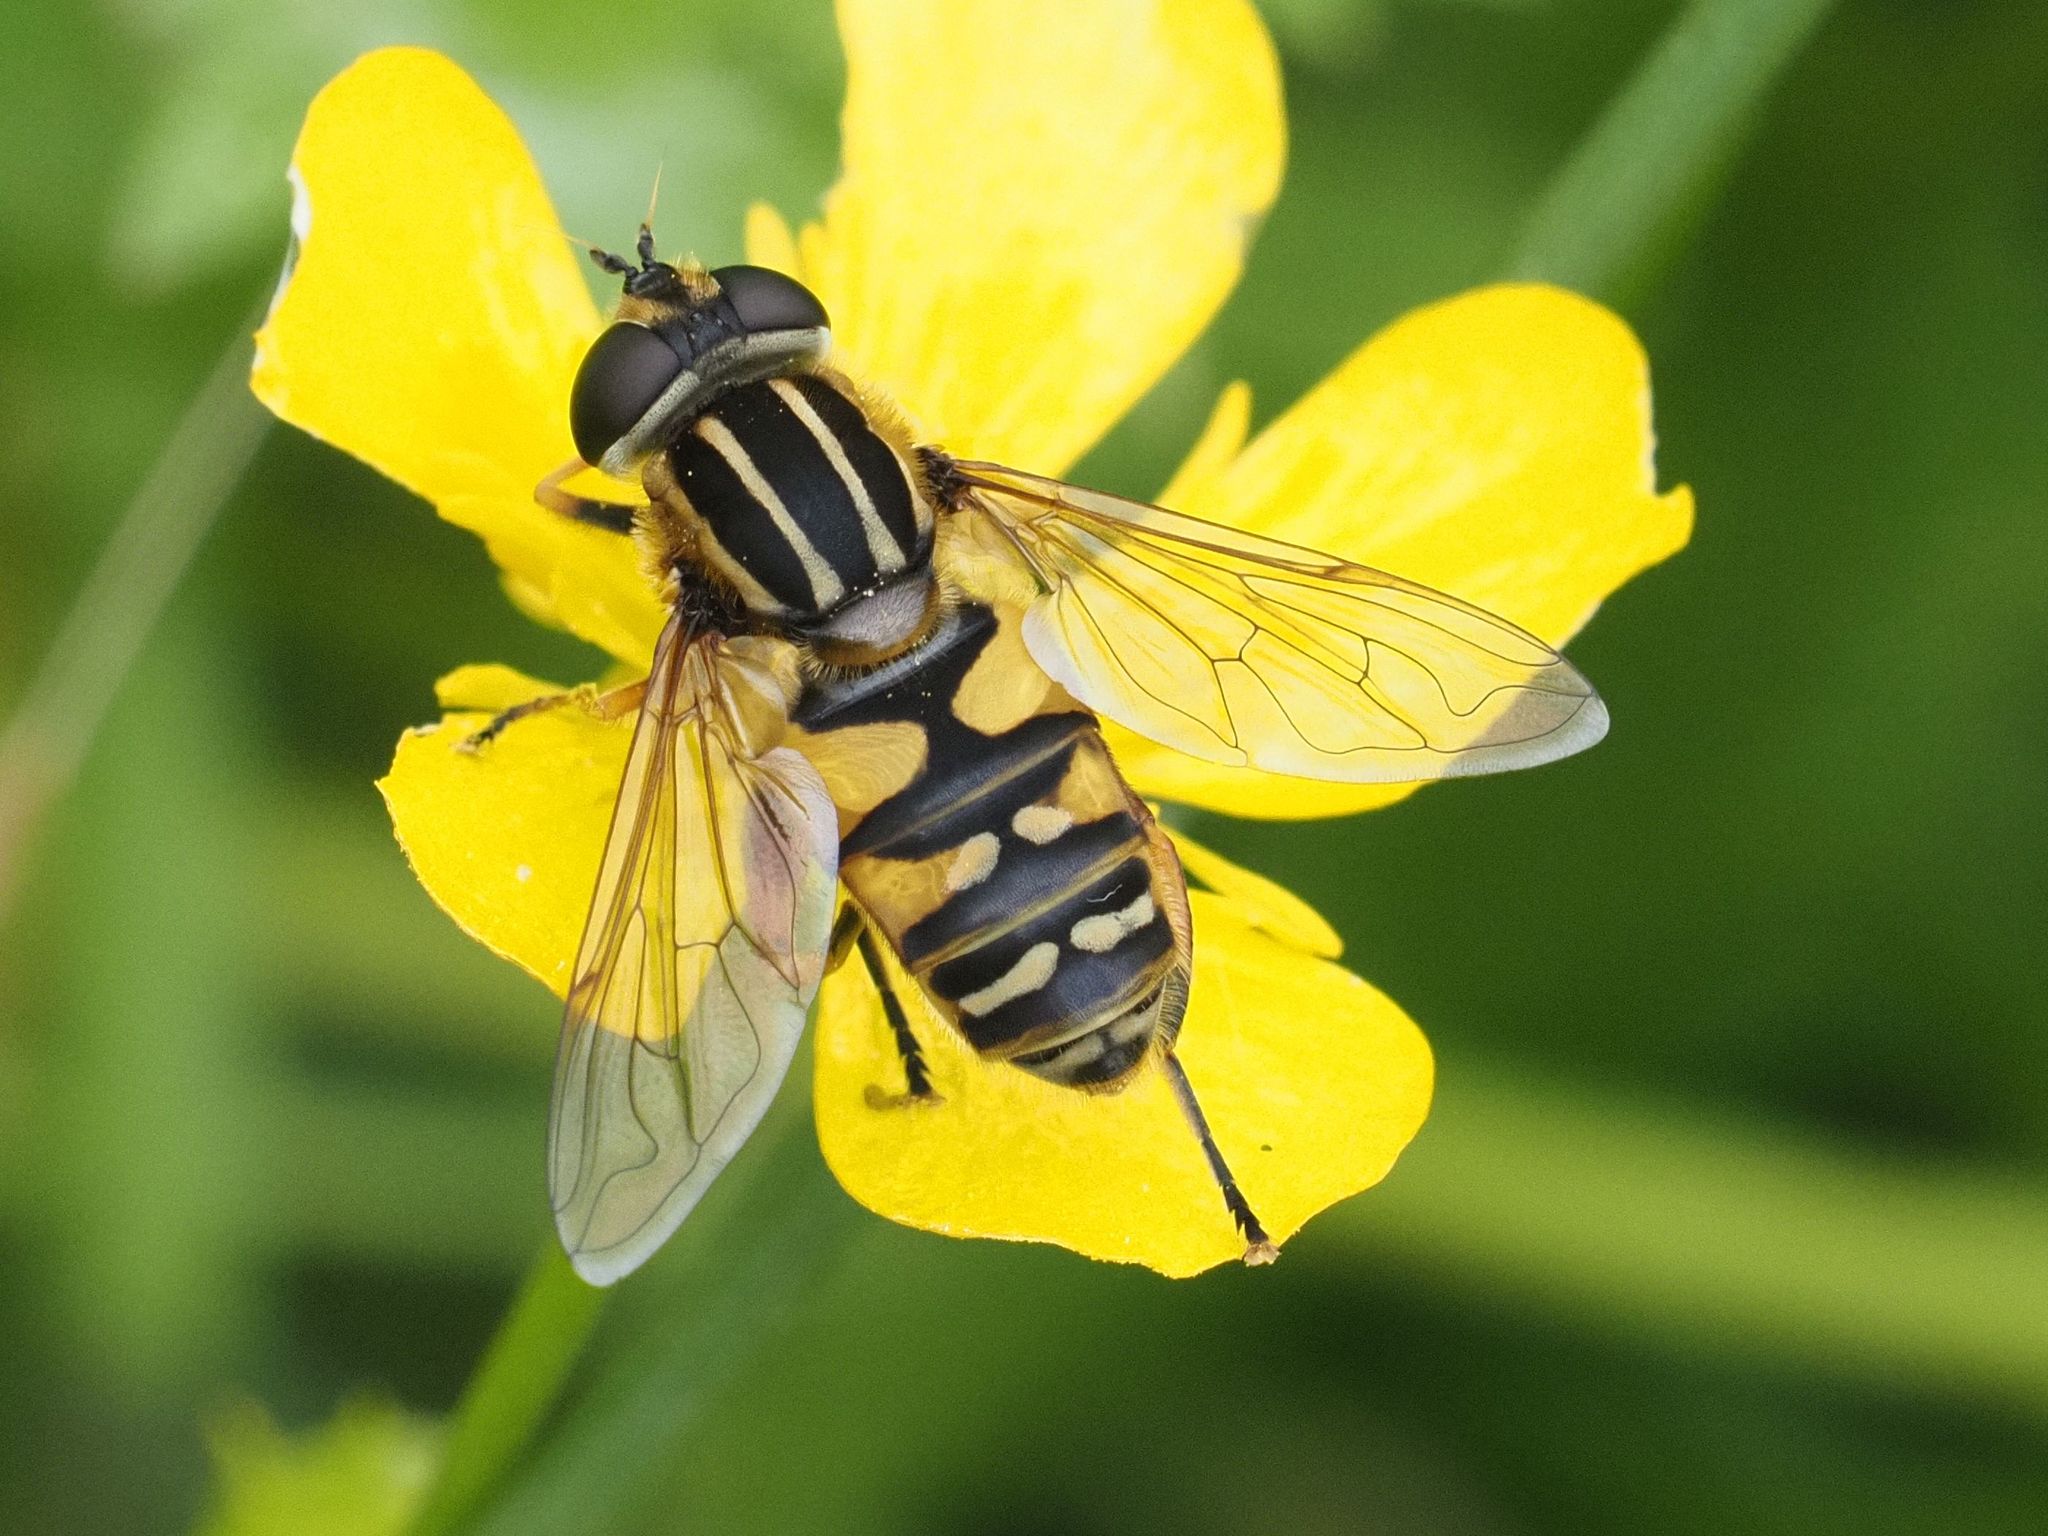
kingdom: Animalia
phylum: Arthropoda
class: Insecta
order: Diptera
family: Syrphidae
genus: Helophilus
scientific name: Helophilus pendulus
